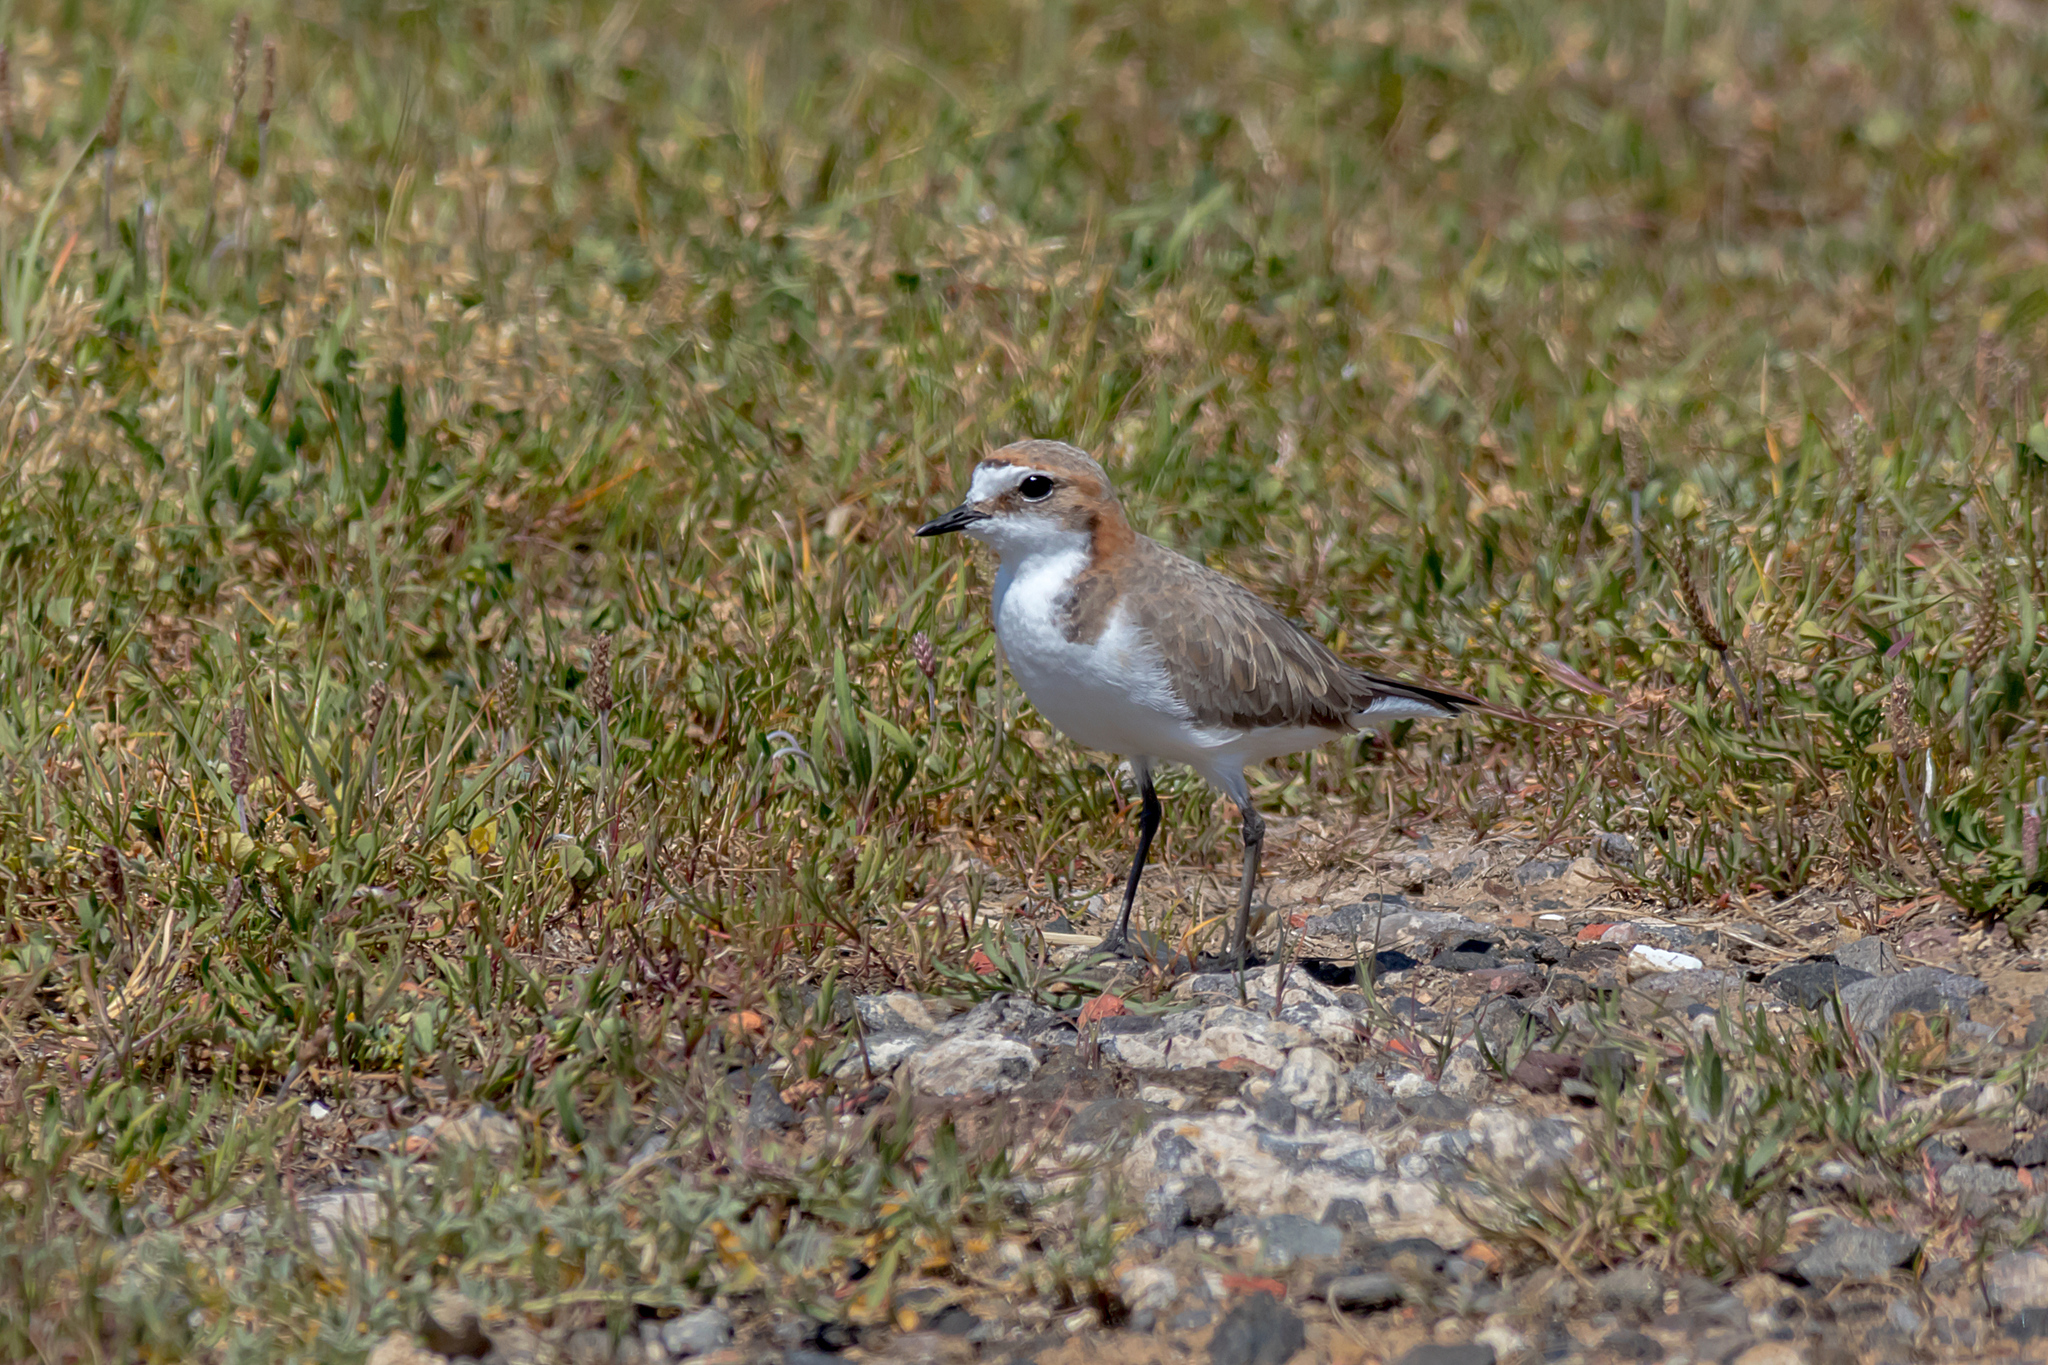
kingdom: Animalia
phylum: Chordata
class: Aves
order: Charadriiformes
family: Charadriidae
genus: Anarhynchus
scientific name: Anarhynchus
